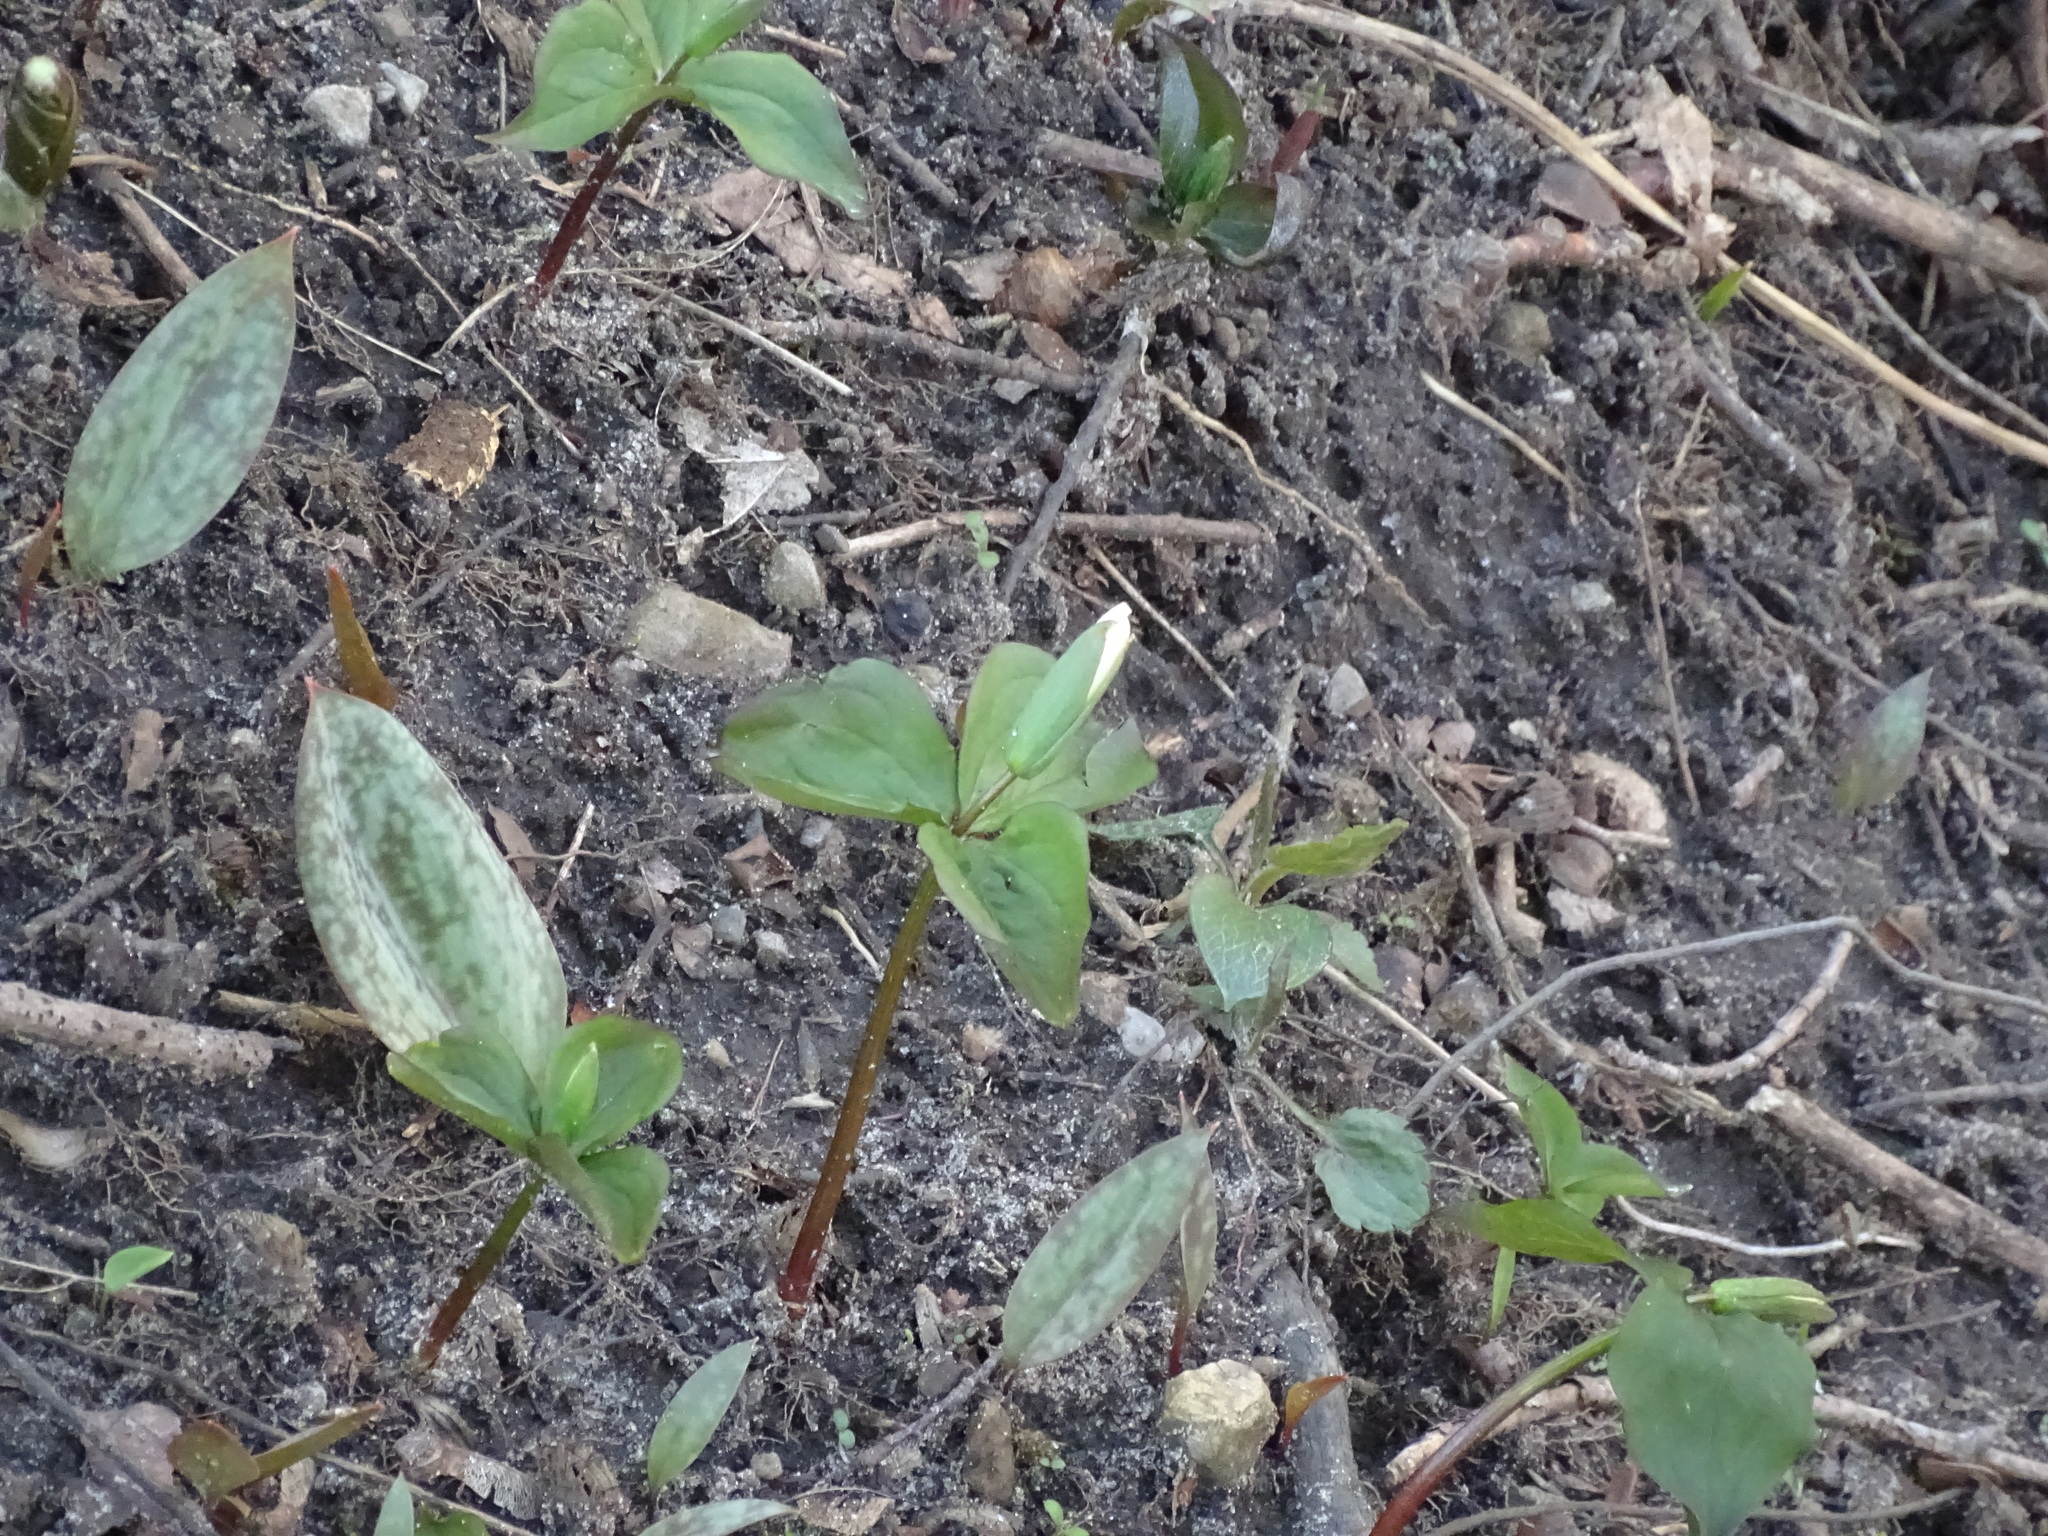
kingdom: Plantae
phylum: Tracheophyta
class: Liliopsida
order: Liliales
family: Melanthiaceae
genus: Trillium
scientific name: Trillium grandiflorum
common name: Great white trillium
